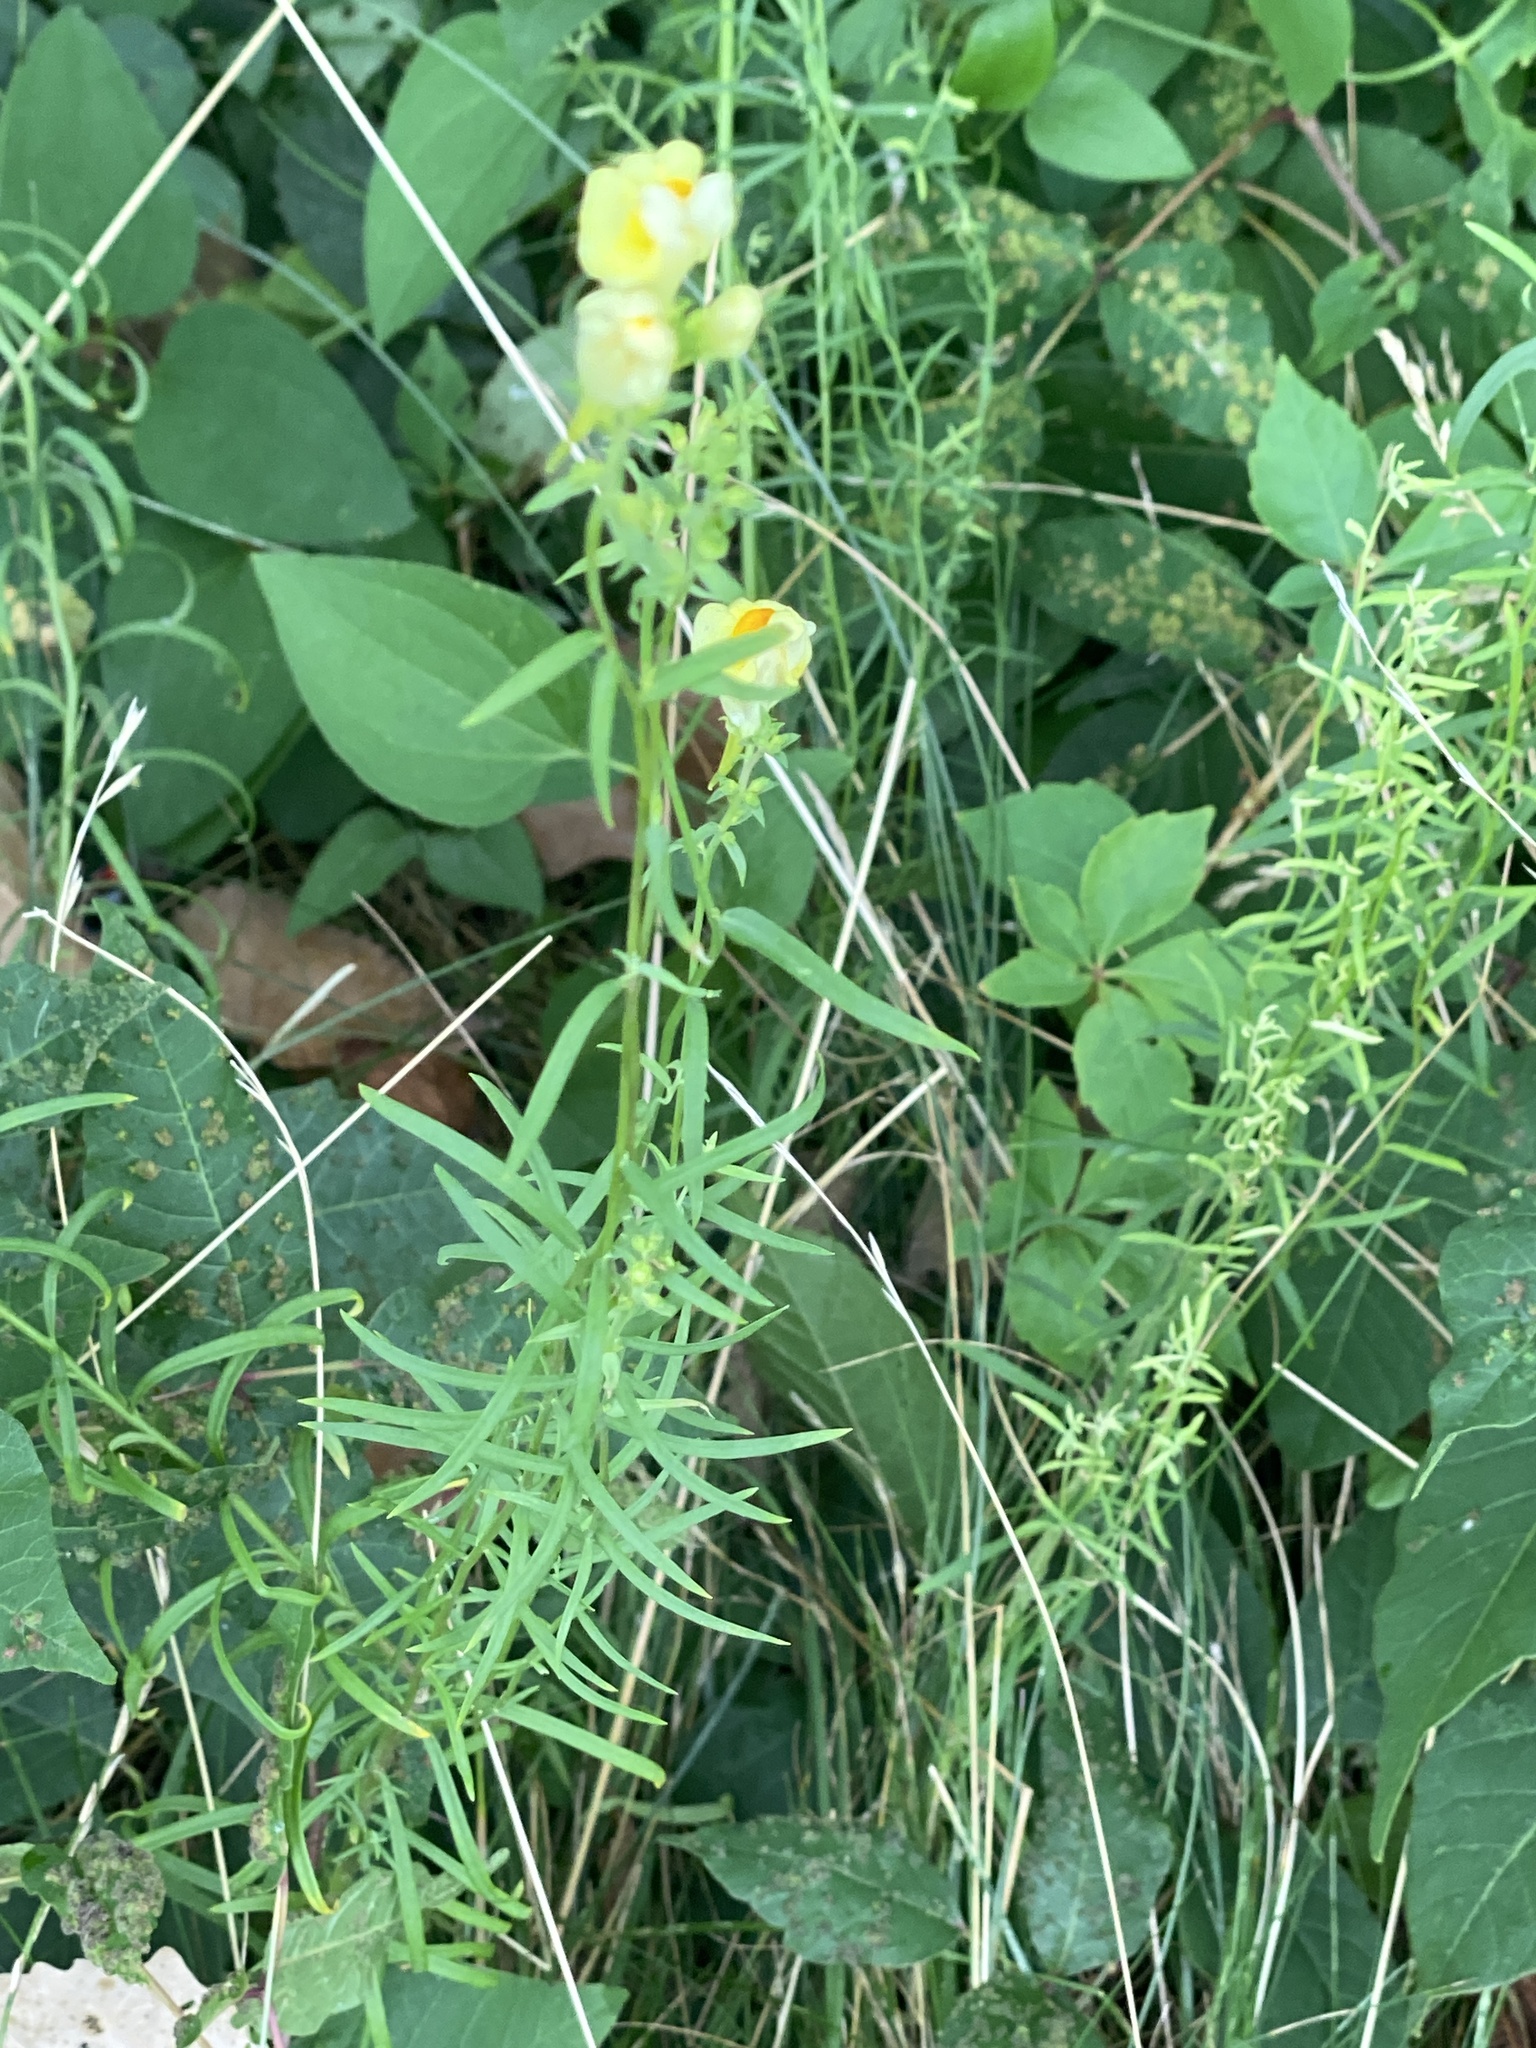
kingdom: Plantae
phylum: Tracheophyta
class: Magnoliopsida
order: Lamiales
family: Plantaginaceae
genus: Linaria
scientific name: Linaria vulgaris
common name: Butter and eggs
